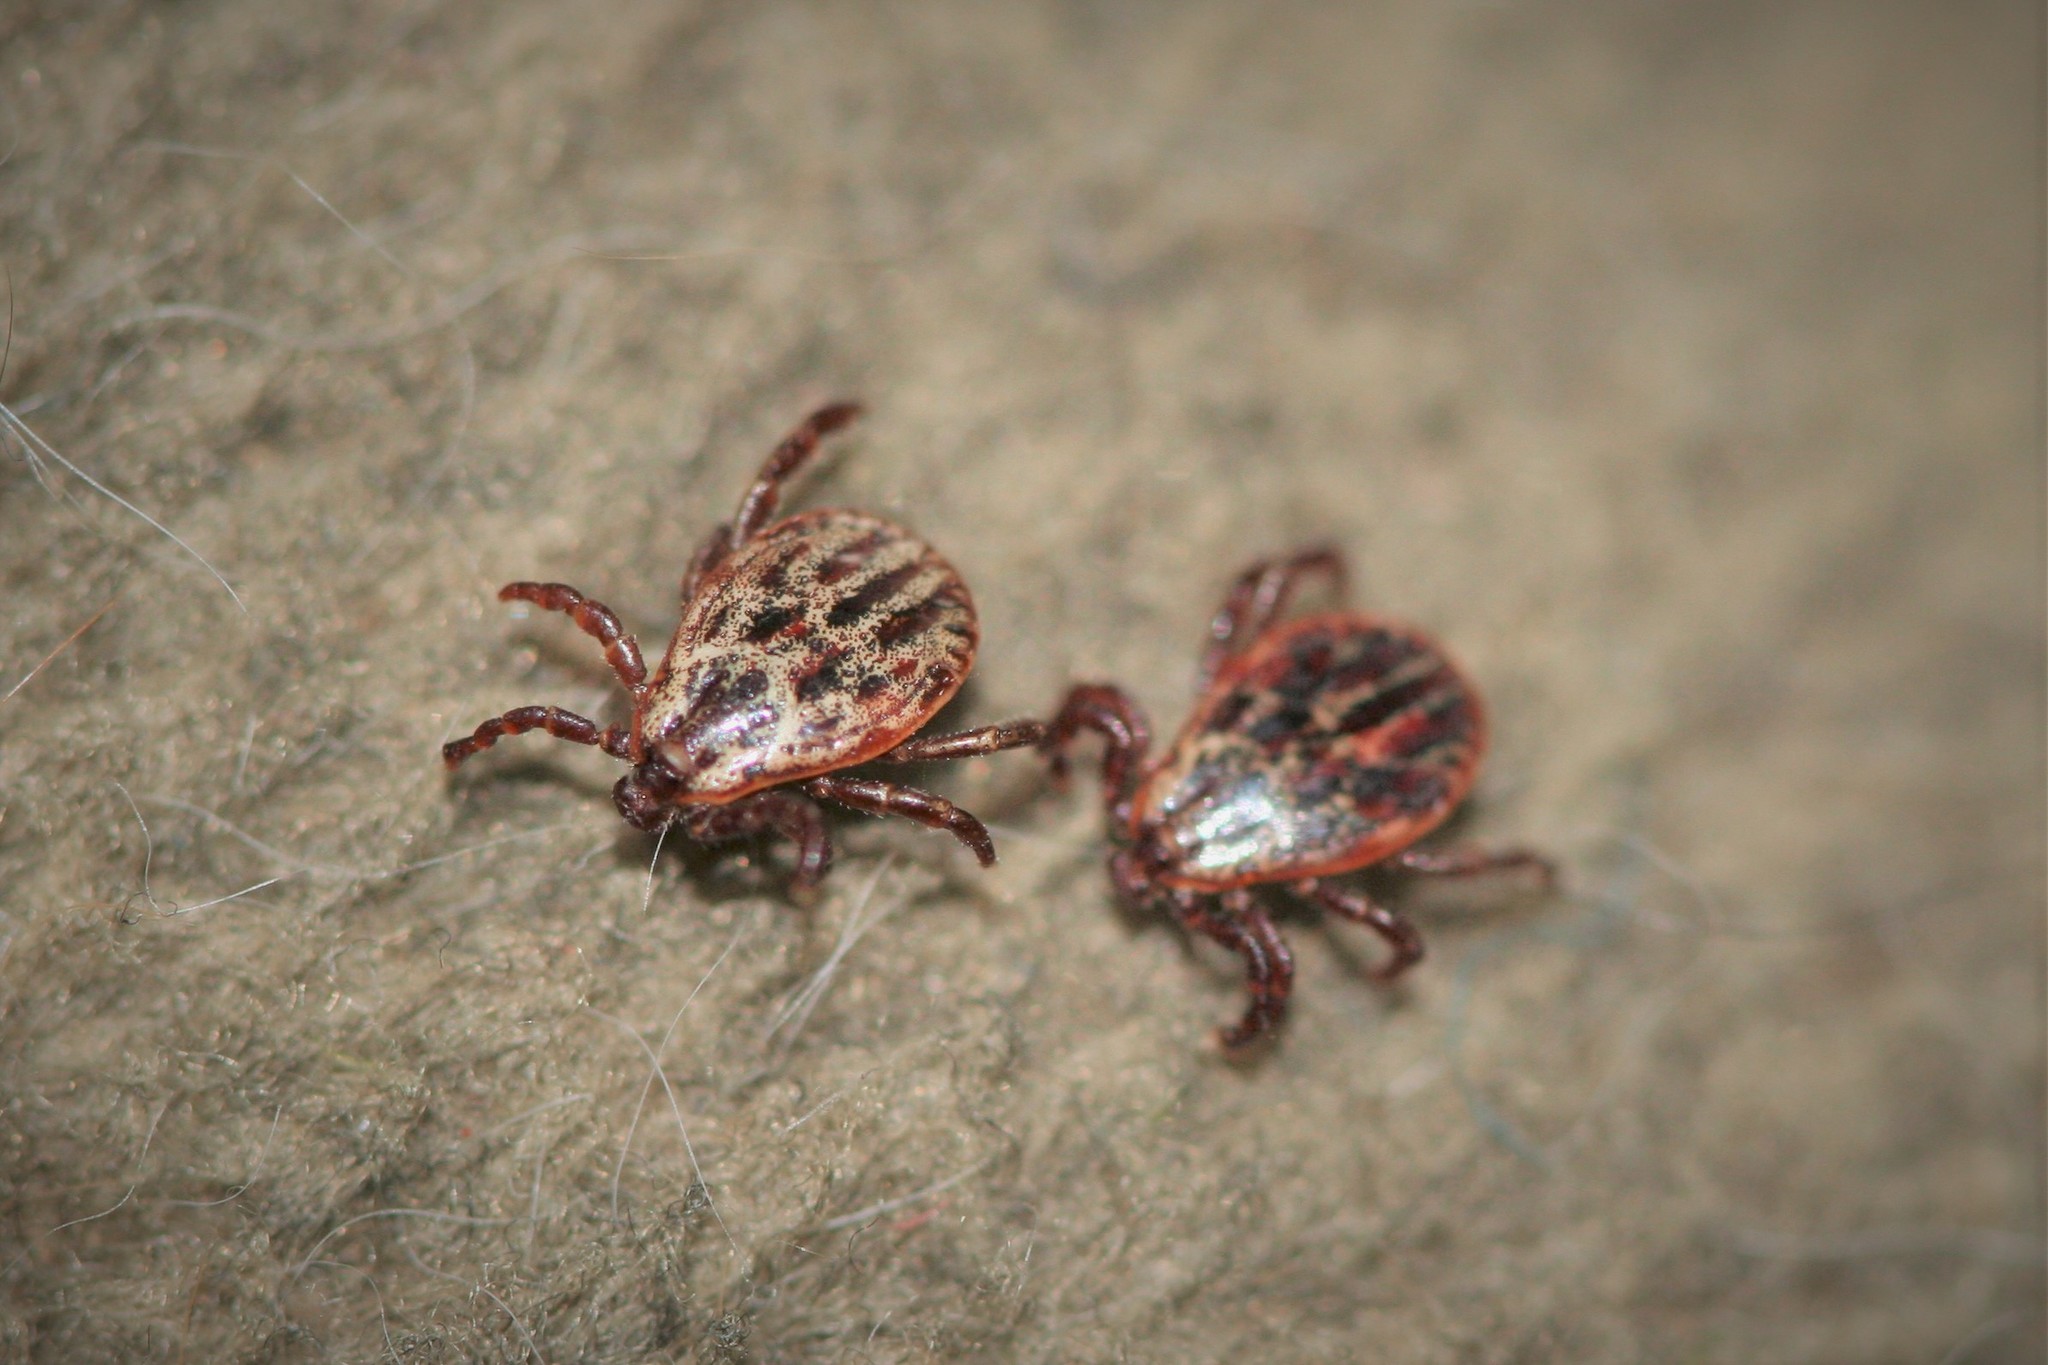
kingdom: Animalia
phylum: Arthropoda
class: Arachnida
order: Ixodida
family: Ixodidae
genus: Dermacentor
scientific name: Dermacentor reticulatus
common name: Ornate cow tick
